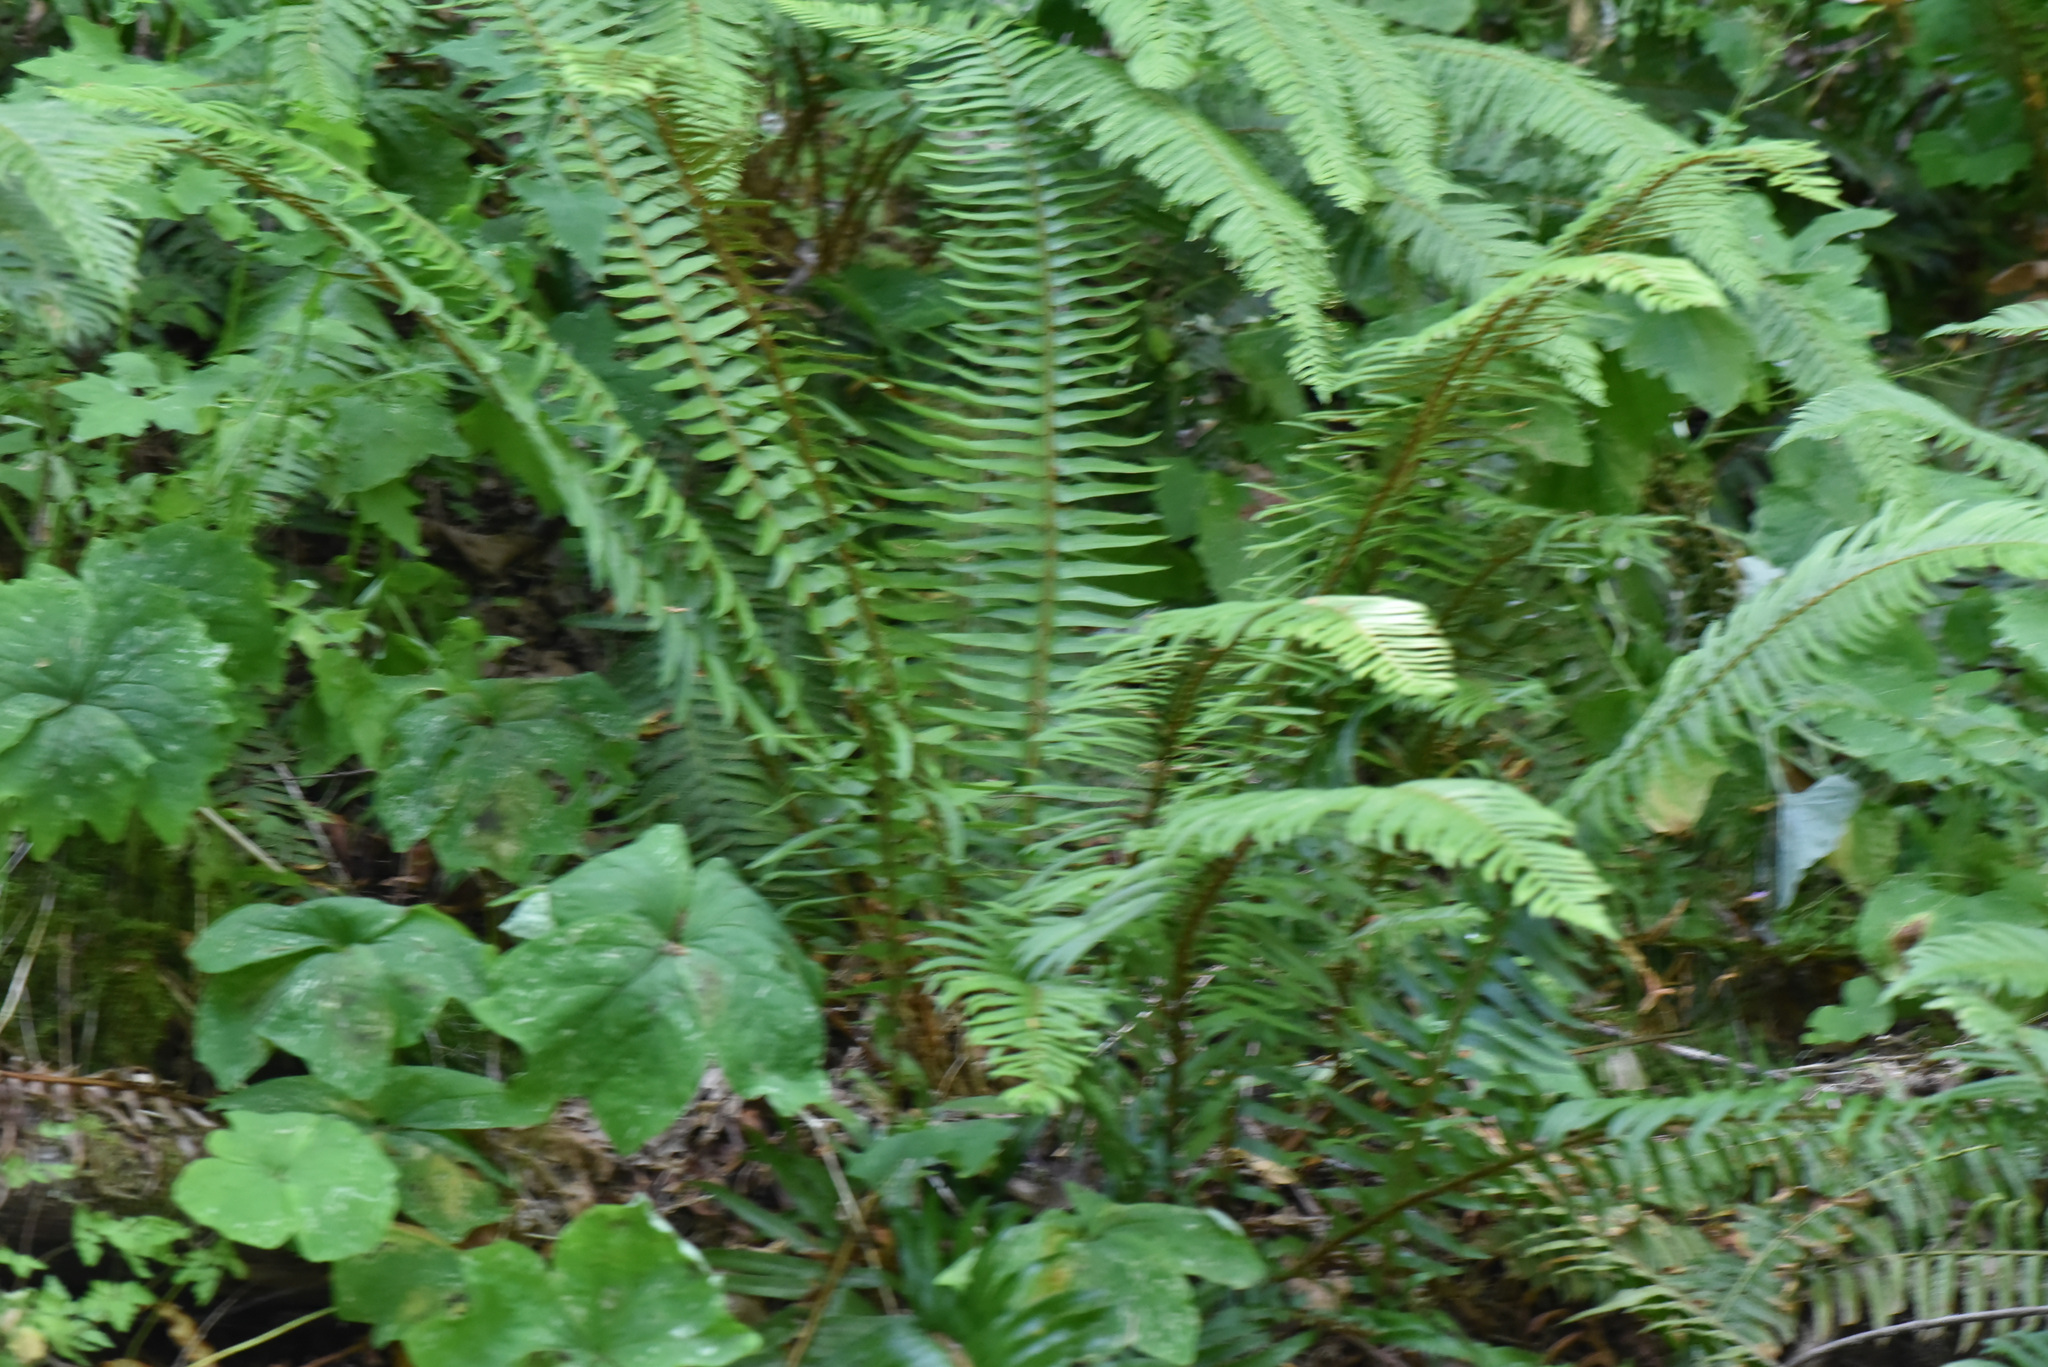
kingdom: Plantae
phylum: Tracheophyta
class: Polypodiopsida
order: Polypodiales
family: Dryopteridaceae
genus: Polystichum
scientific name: Polystichum munitum
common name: Western sword-fern
